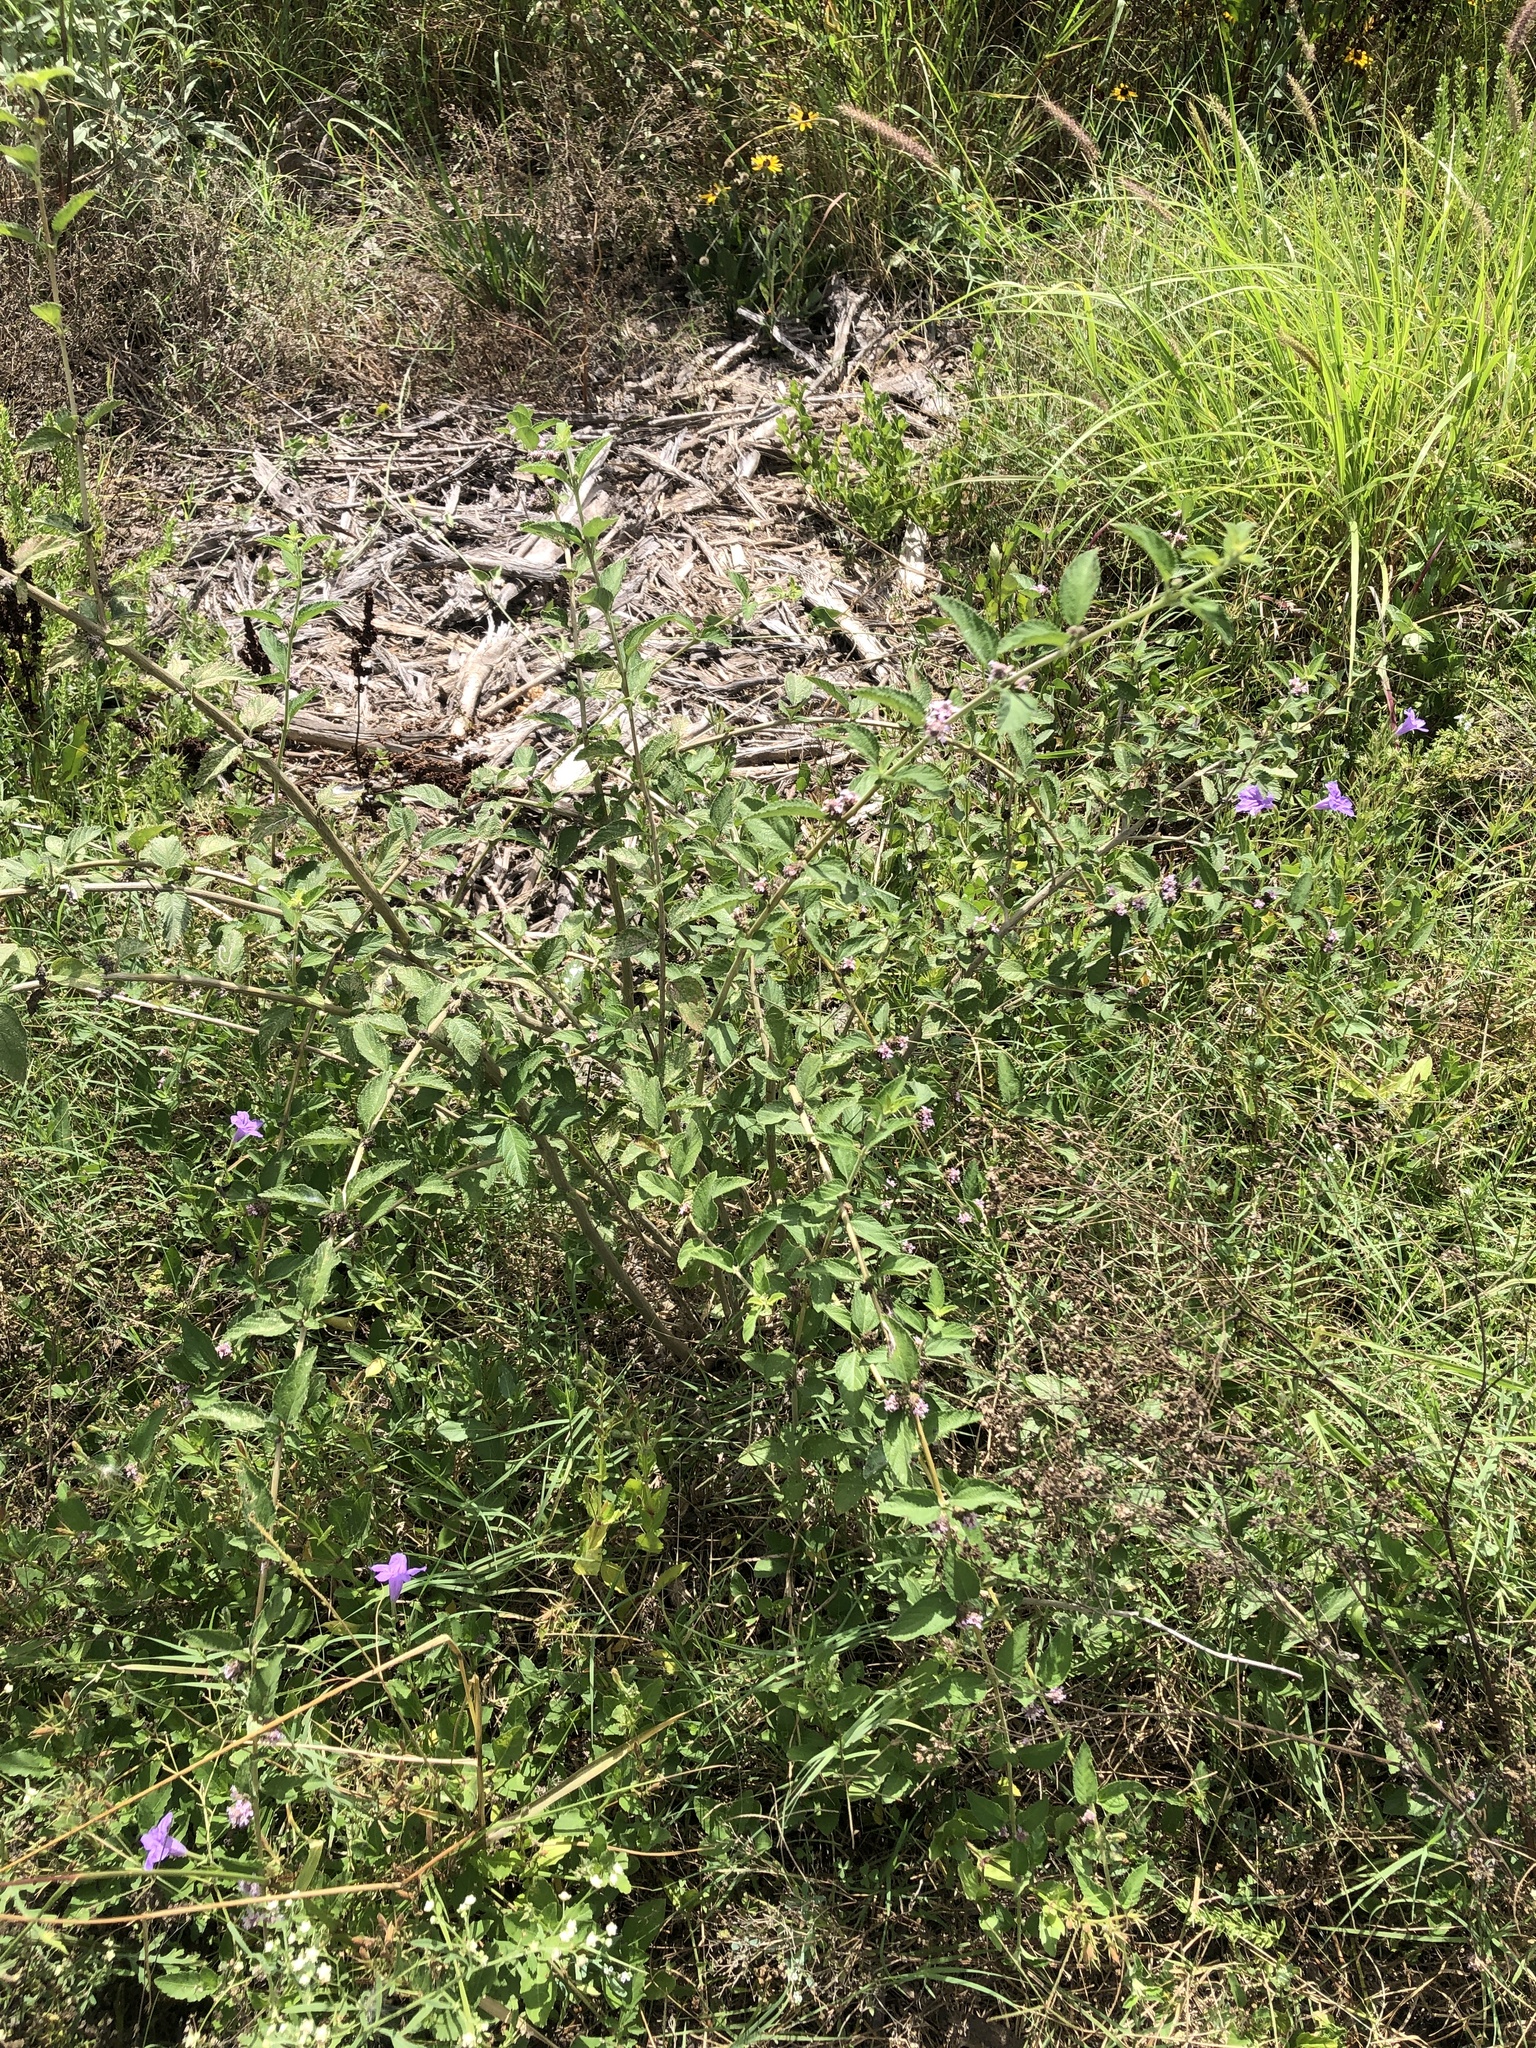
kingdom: Plantae
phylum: Tracheophyta
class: Magnoliopsida
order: Lamiales
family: Verbenaceae
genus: Lippia
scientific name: Lippia alba
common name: Bushy matgrass
